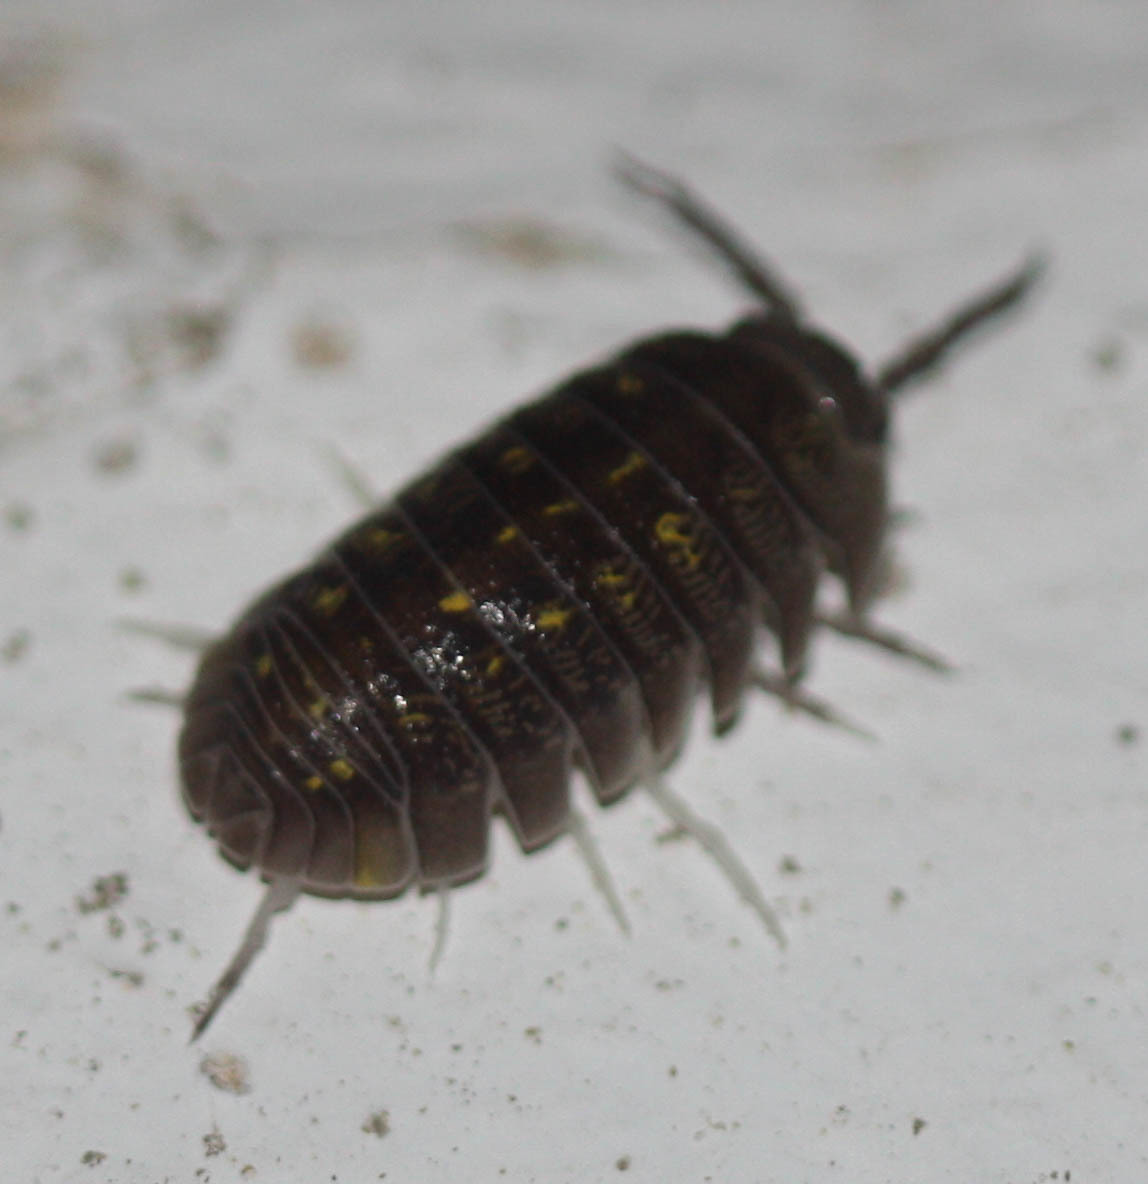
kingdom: Animalia
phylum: Arthropoda
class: Malacostraca
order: Isopoda
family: Armadillidiidae
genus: Armadillidium
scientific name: Armadillidium granulatum
